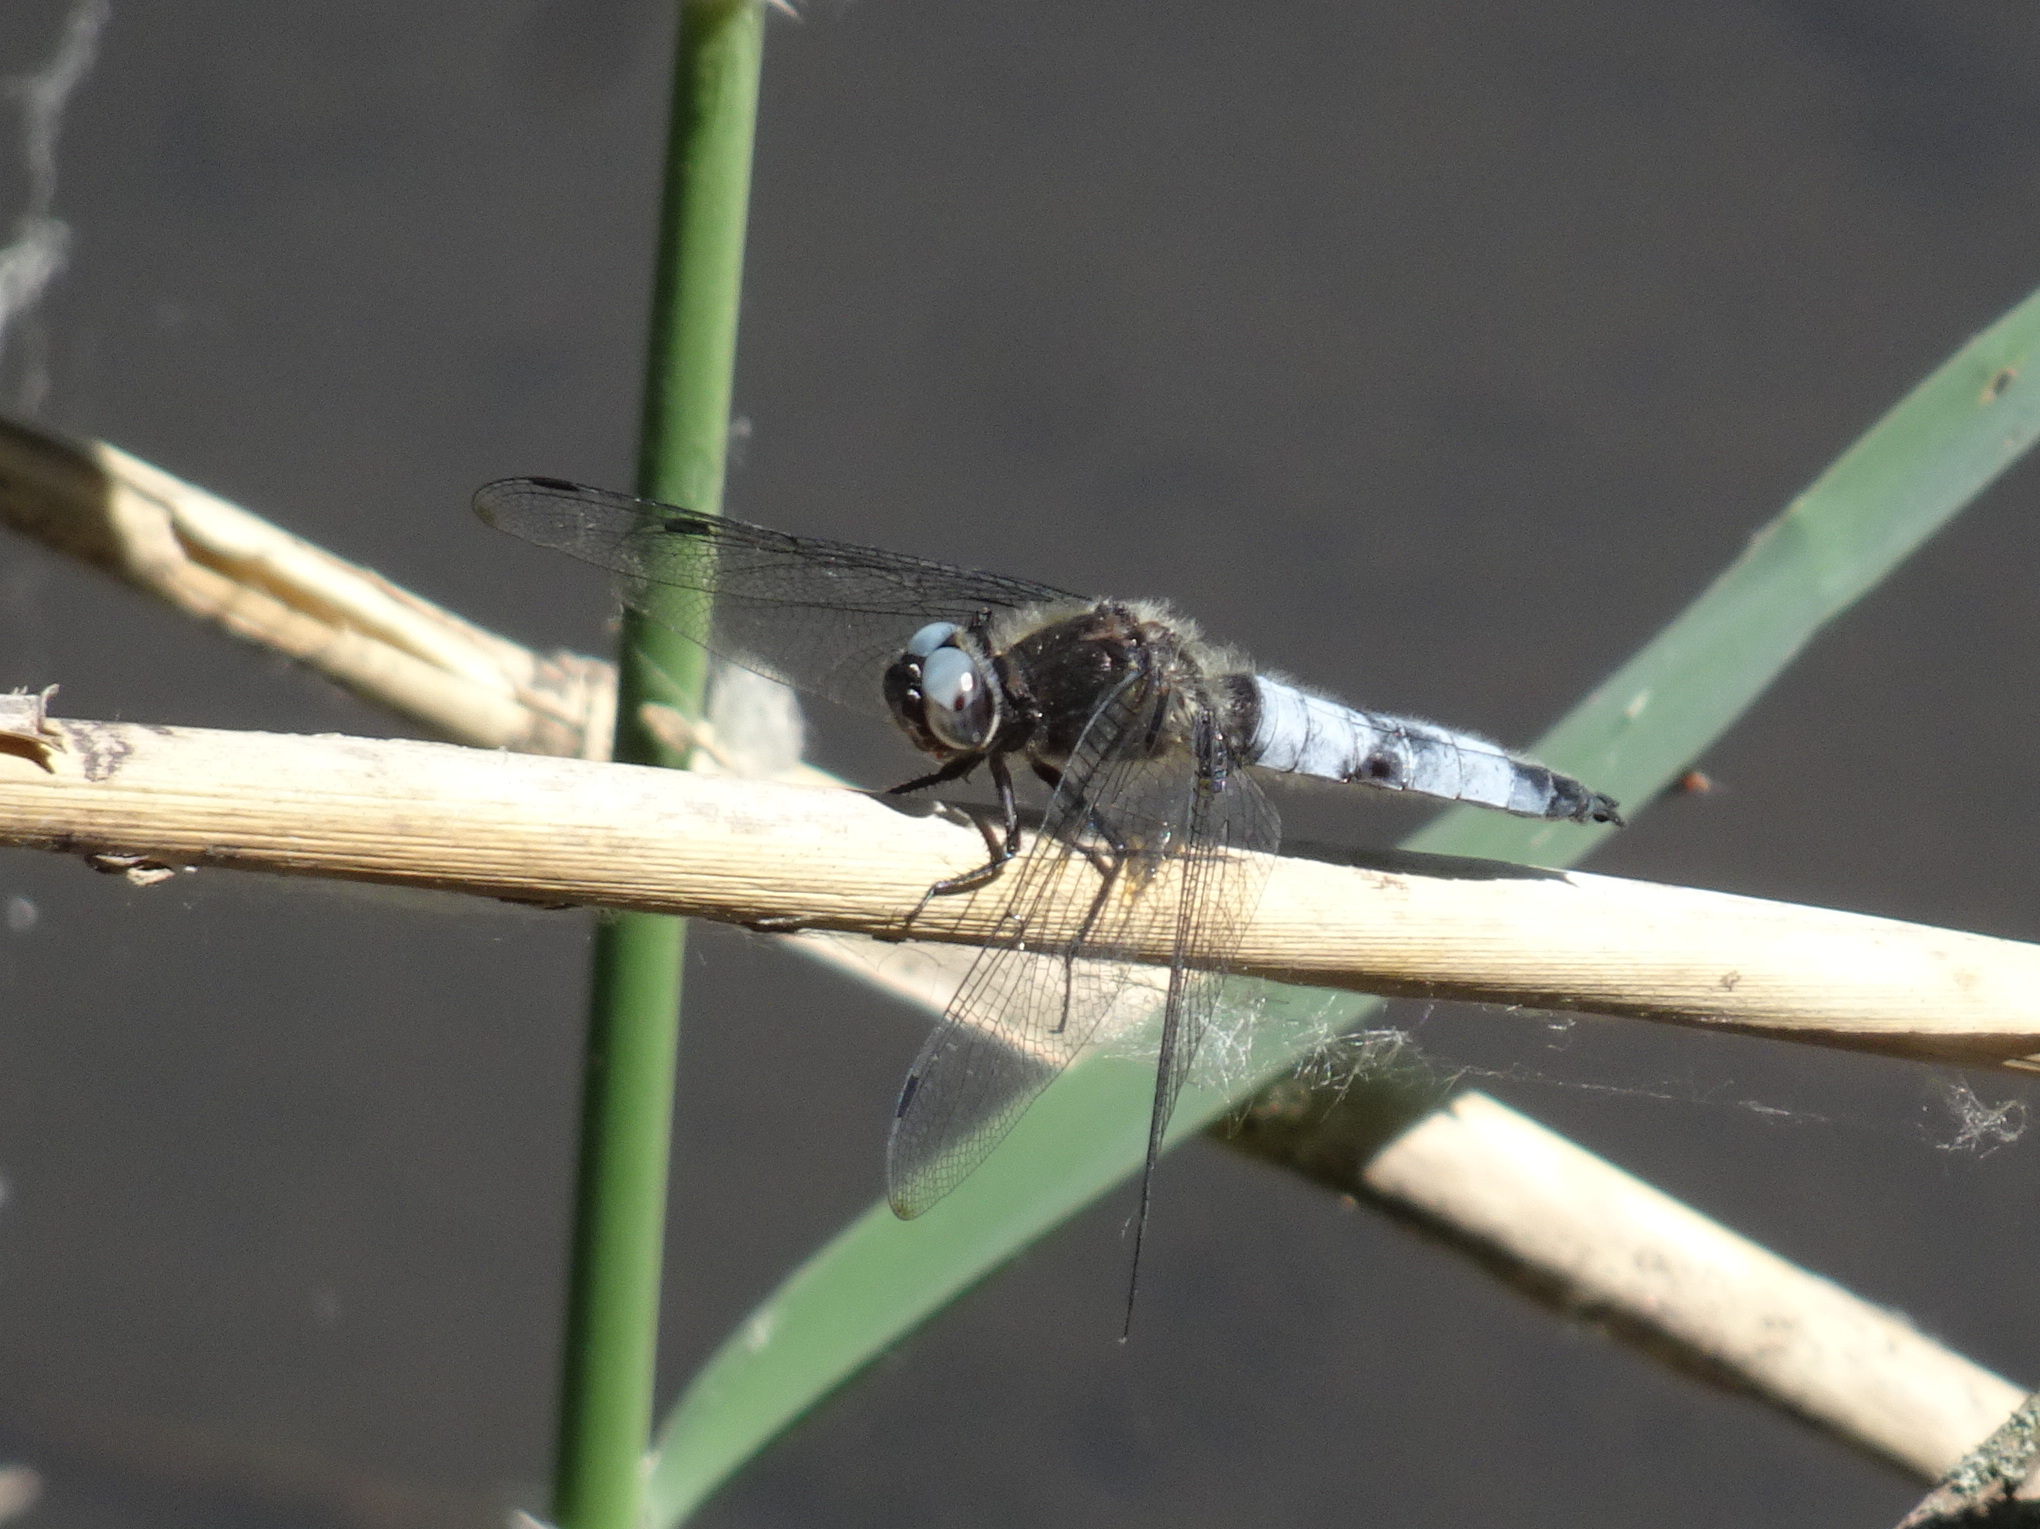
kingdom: Animalia
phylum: Arthropoda
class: Insecta
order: Odonata
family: Libellulidae
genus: Libellula
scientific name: Libellula fulva
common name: Blue chaser
